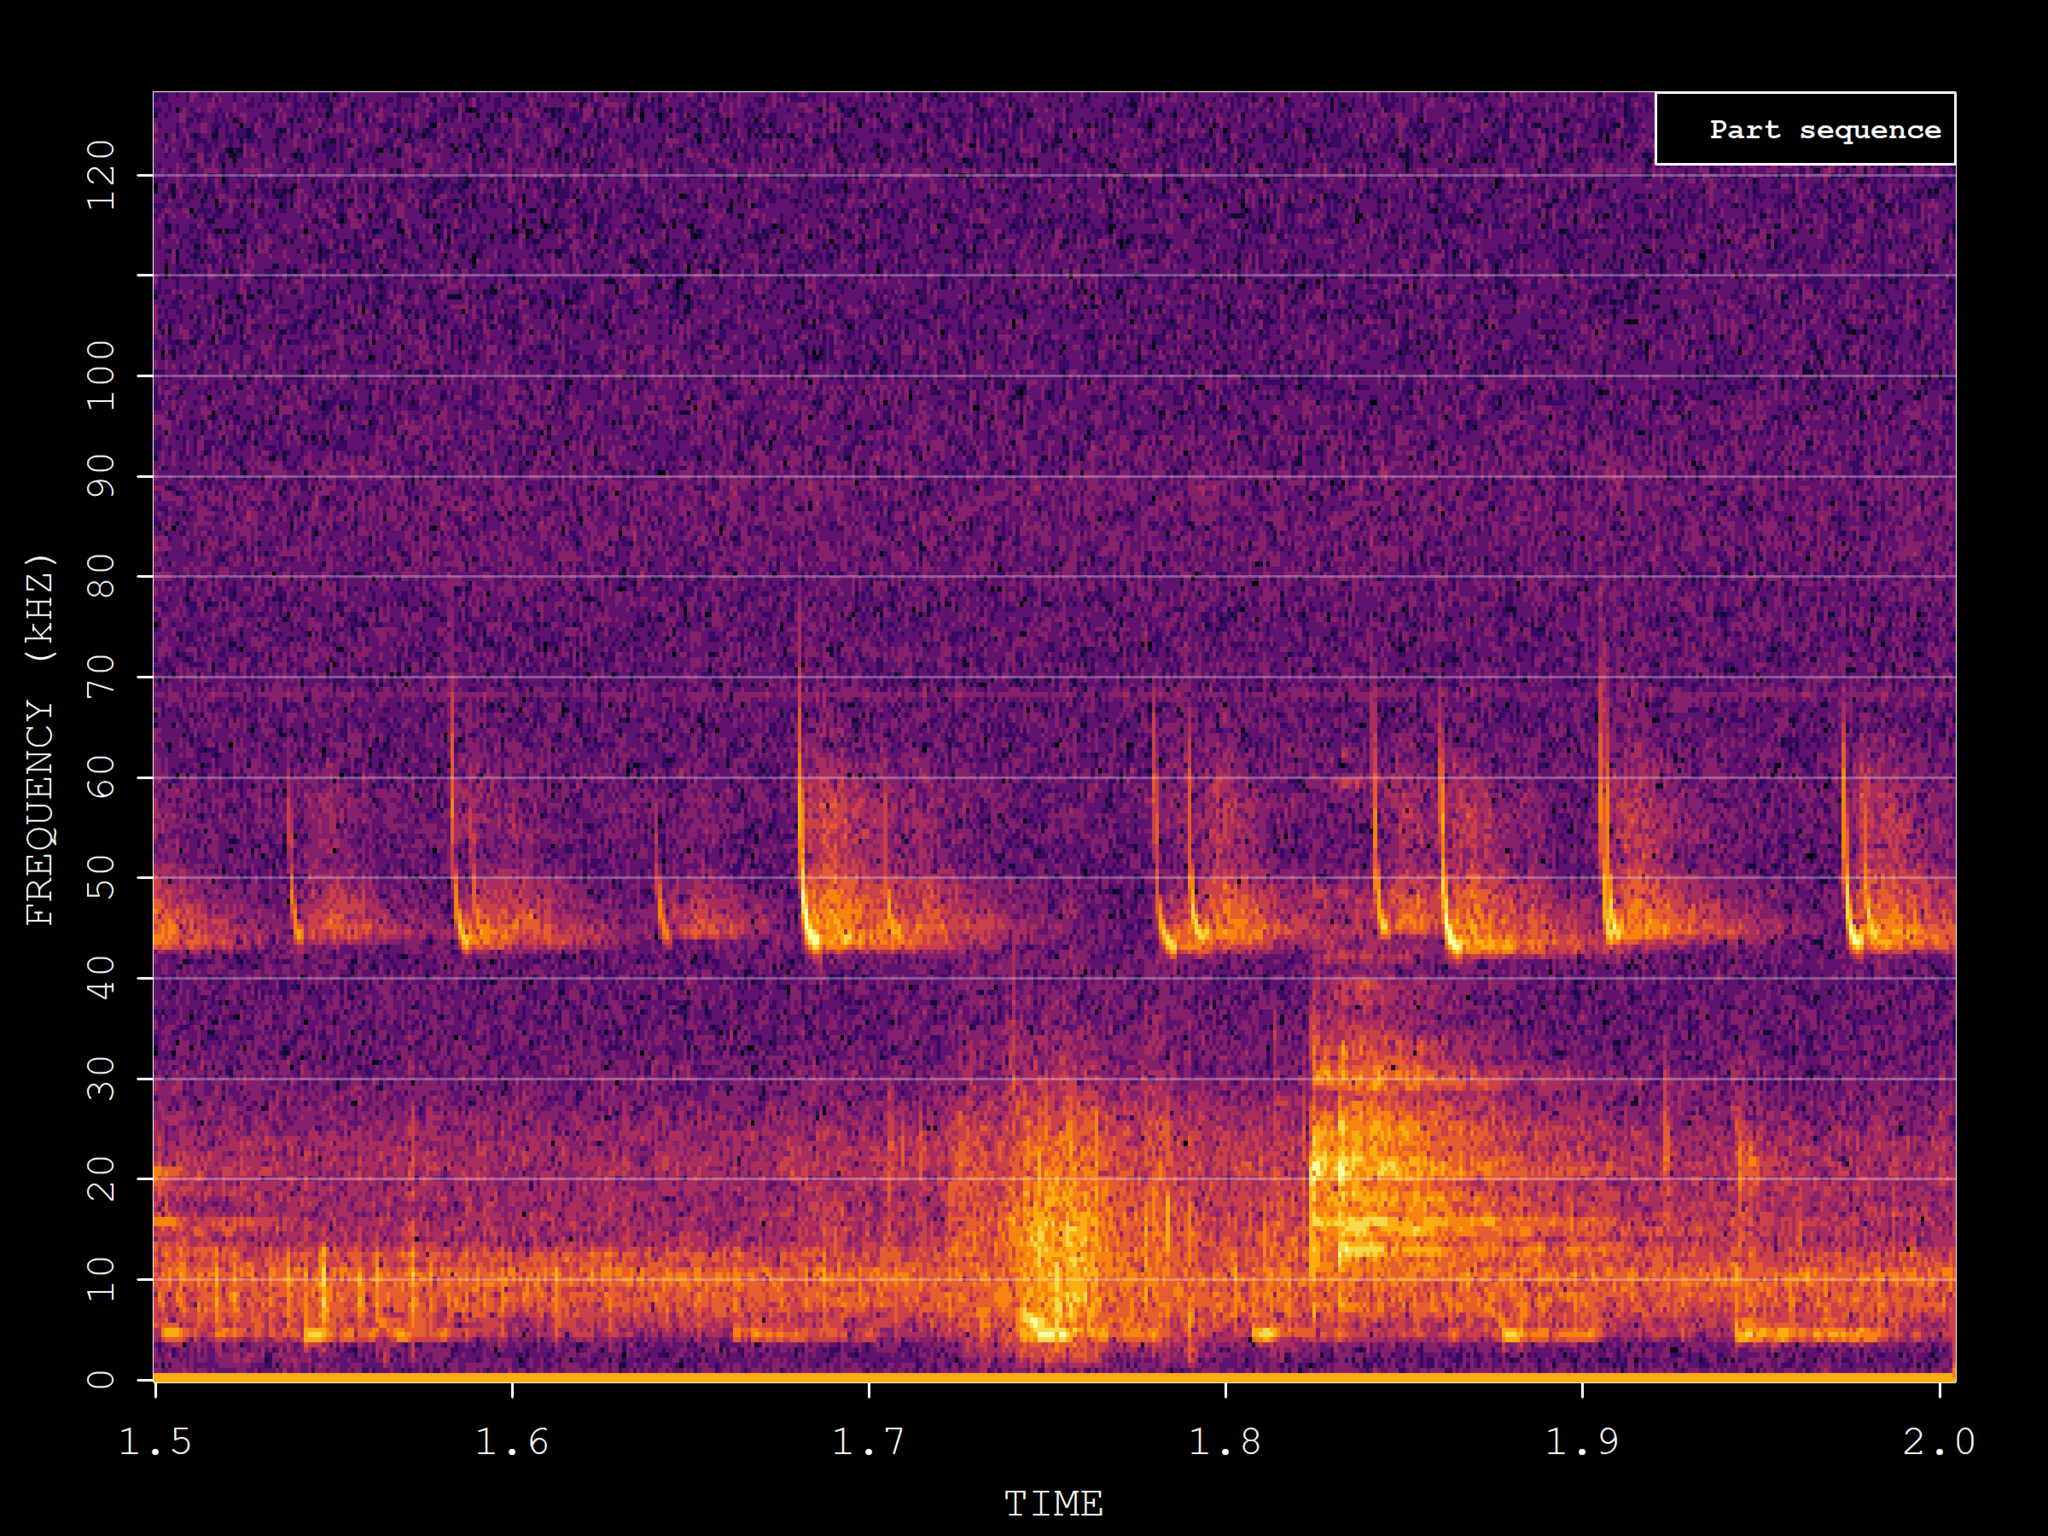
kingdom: Animalia
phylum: Chordata
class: Mammalia
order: Chiroptera
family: Vespertilionidae
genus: Pipistrellus
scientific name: Pipistrellus pipistrellus
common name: Common pipistrelle
